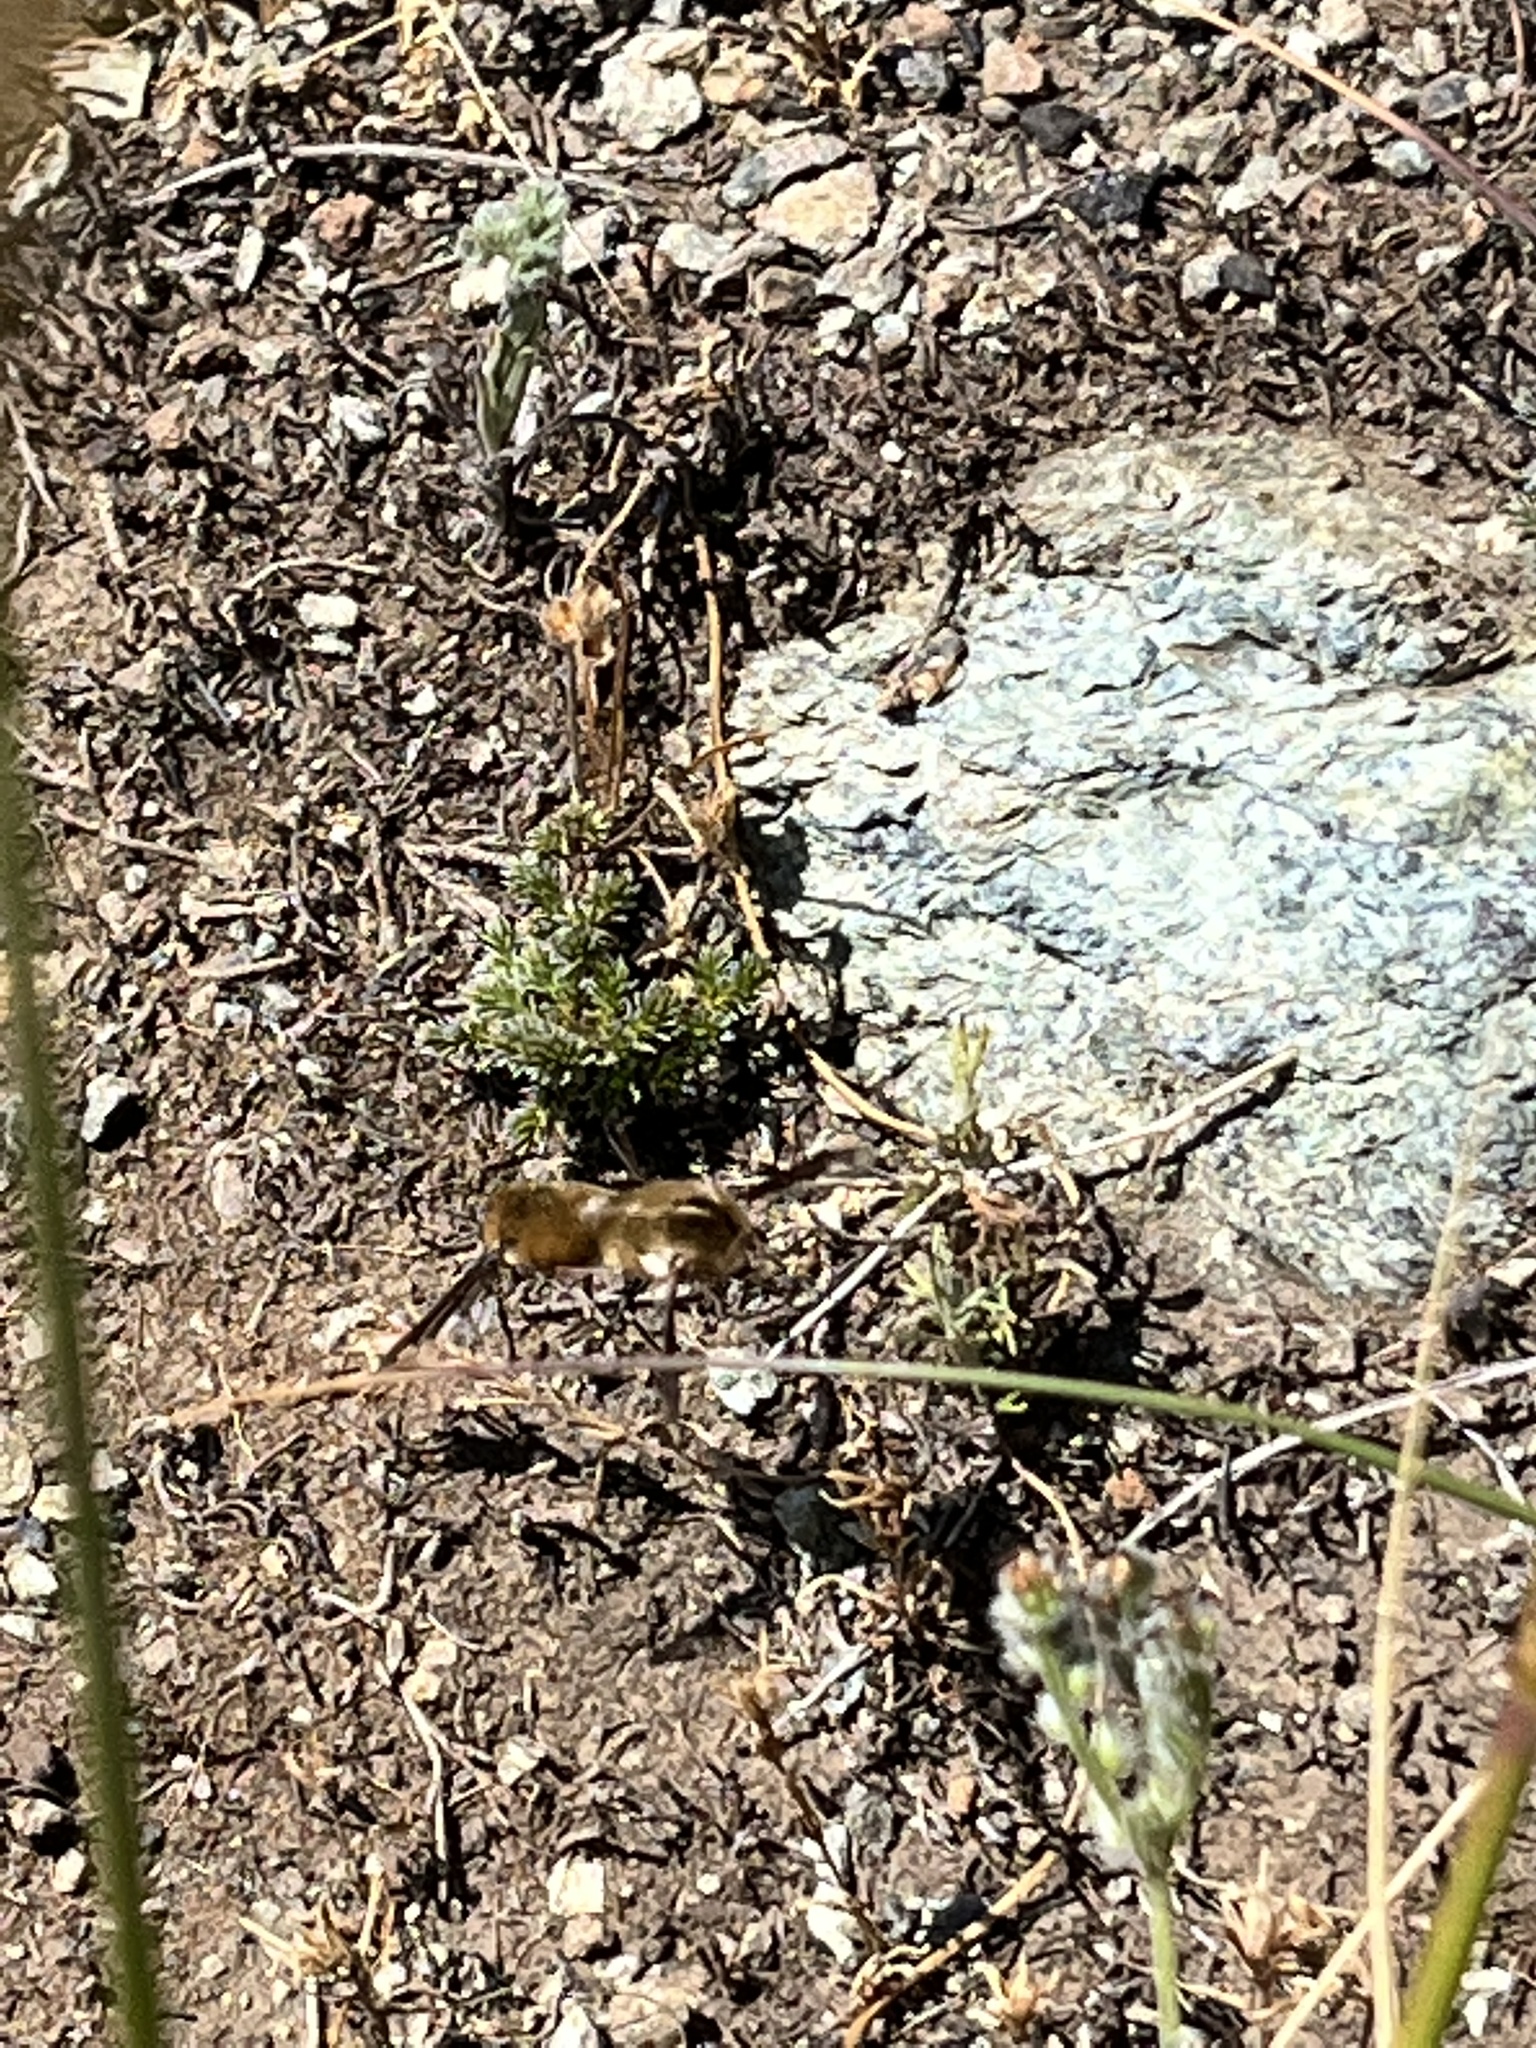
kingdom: Animalia
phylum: Arthropoda
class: Insecta
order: Diptera
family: Bombyliidae
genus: Bombylius
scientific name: Bombylius major
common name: Bee fly
